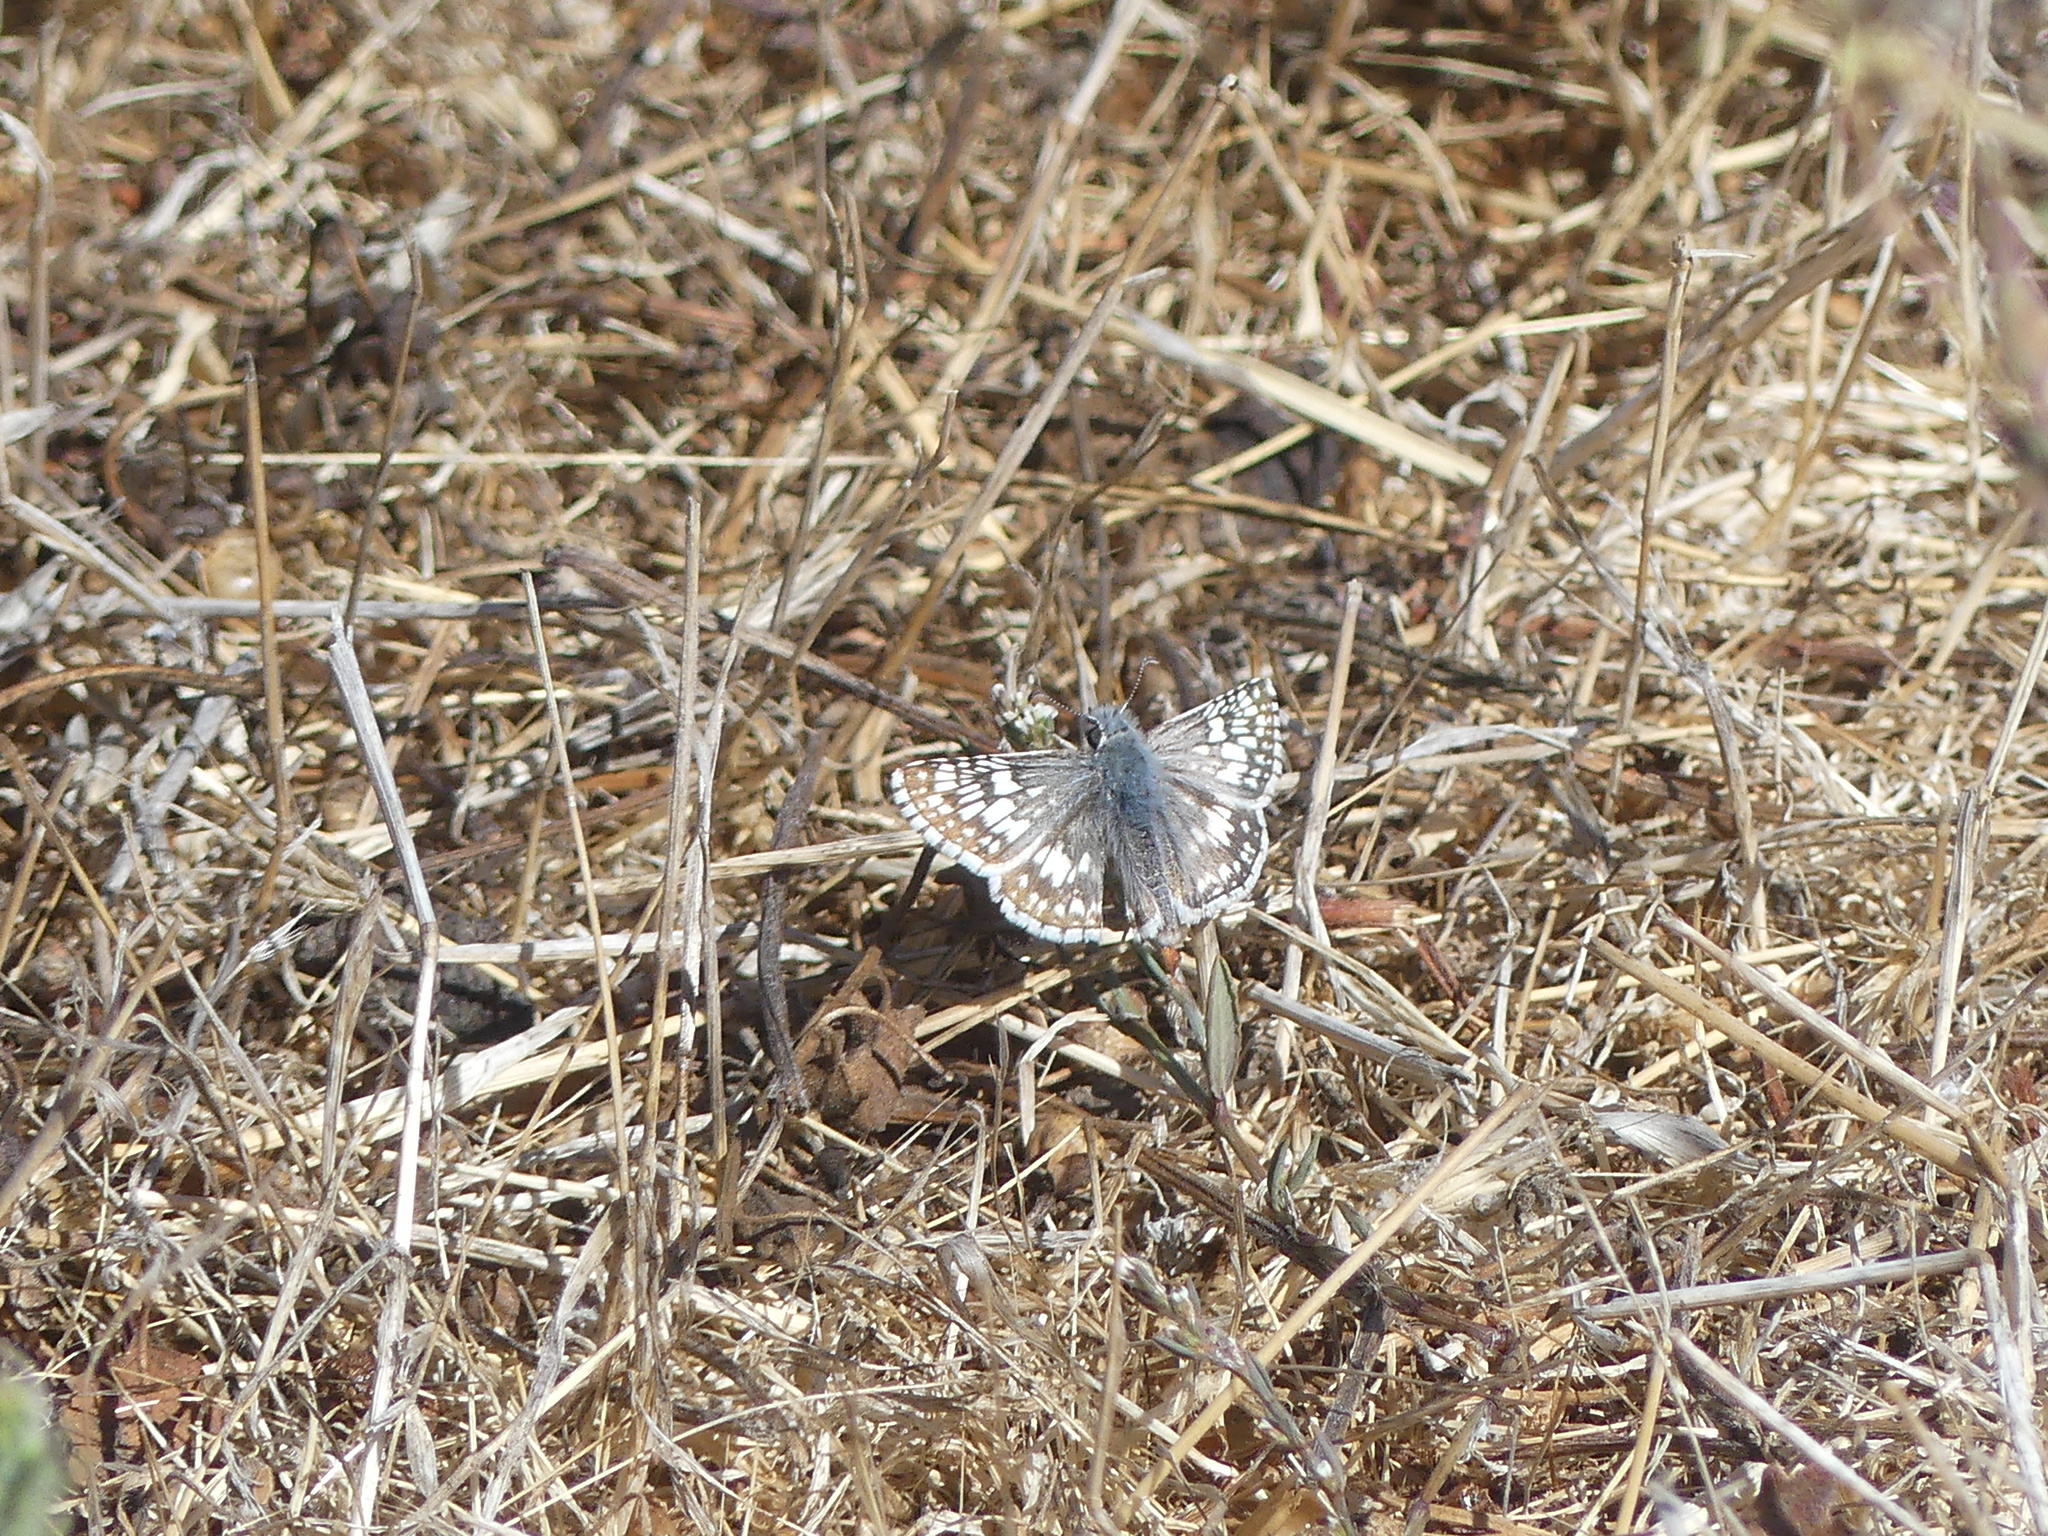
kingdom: Animalia
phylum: Arthropoda
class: Insecta
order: Lepidoptera
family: Hesperiidae
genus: Burnsius
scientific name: Burnsius communis
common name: Common checkered-skipper
